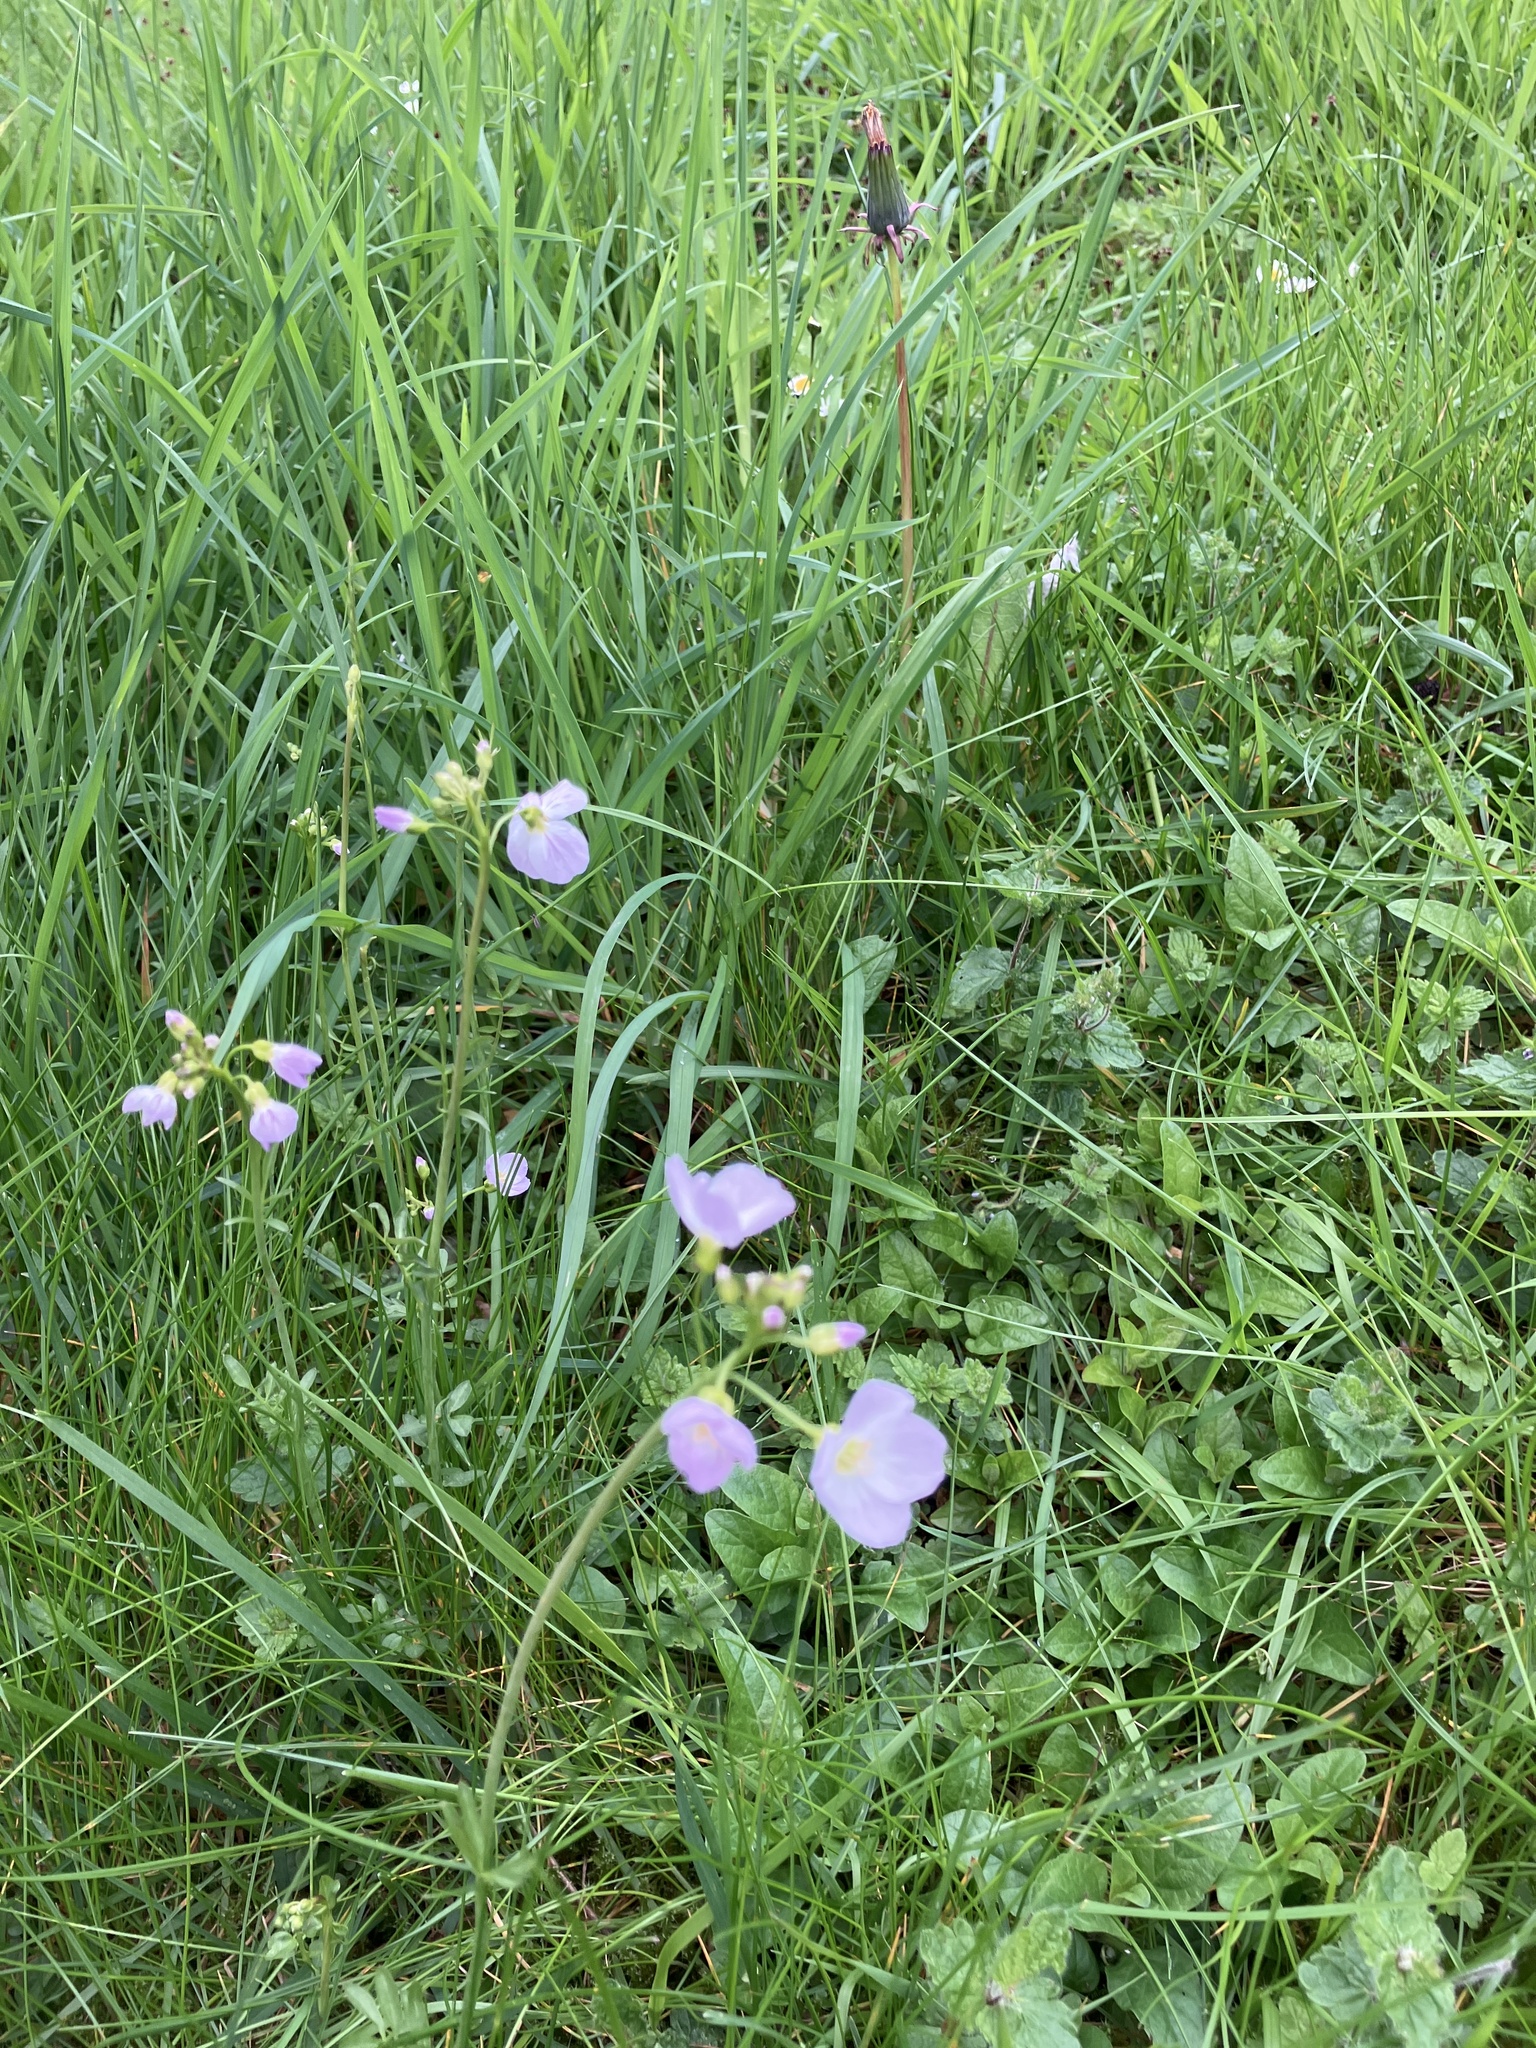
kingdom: Plantae
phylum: Tracheophyta
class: Magnoliopsida
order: Brassicales
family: Brassicaceae
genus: Cardamine
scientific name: Cardamine pratensis
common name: Cuckoo flower
